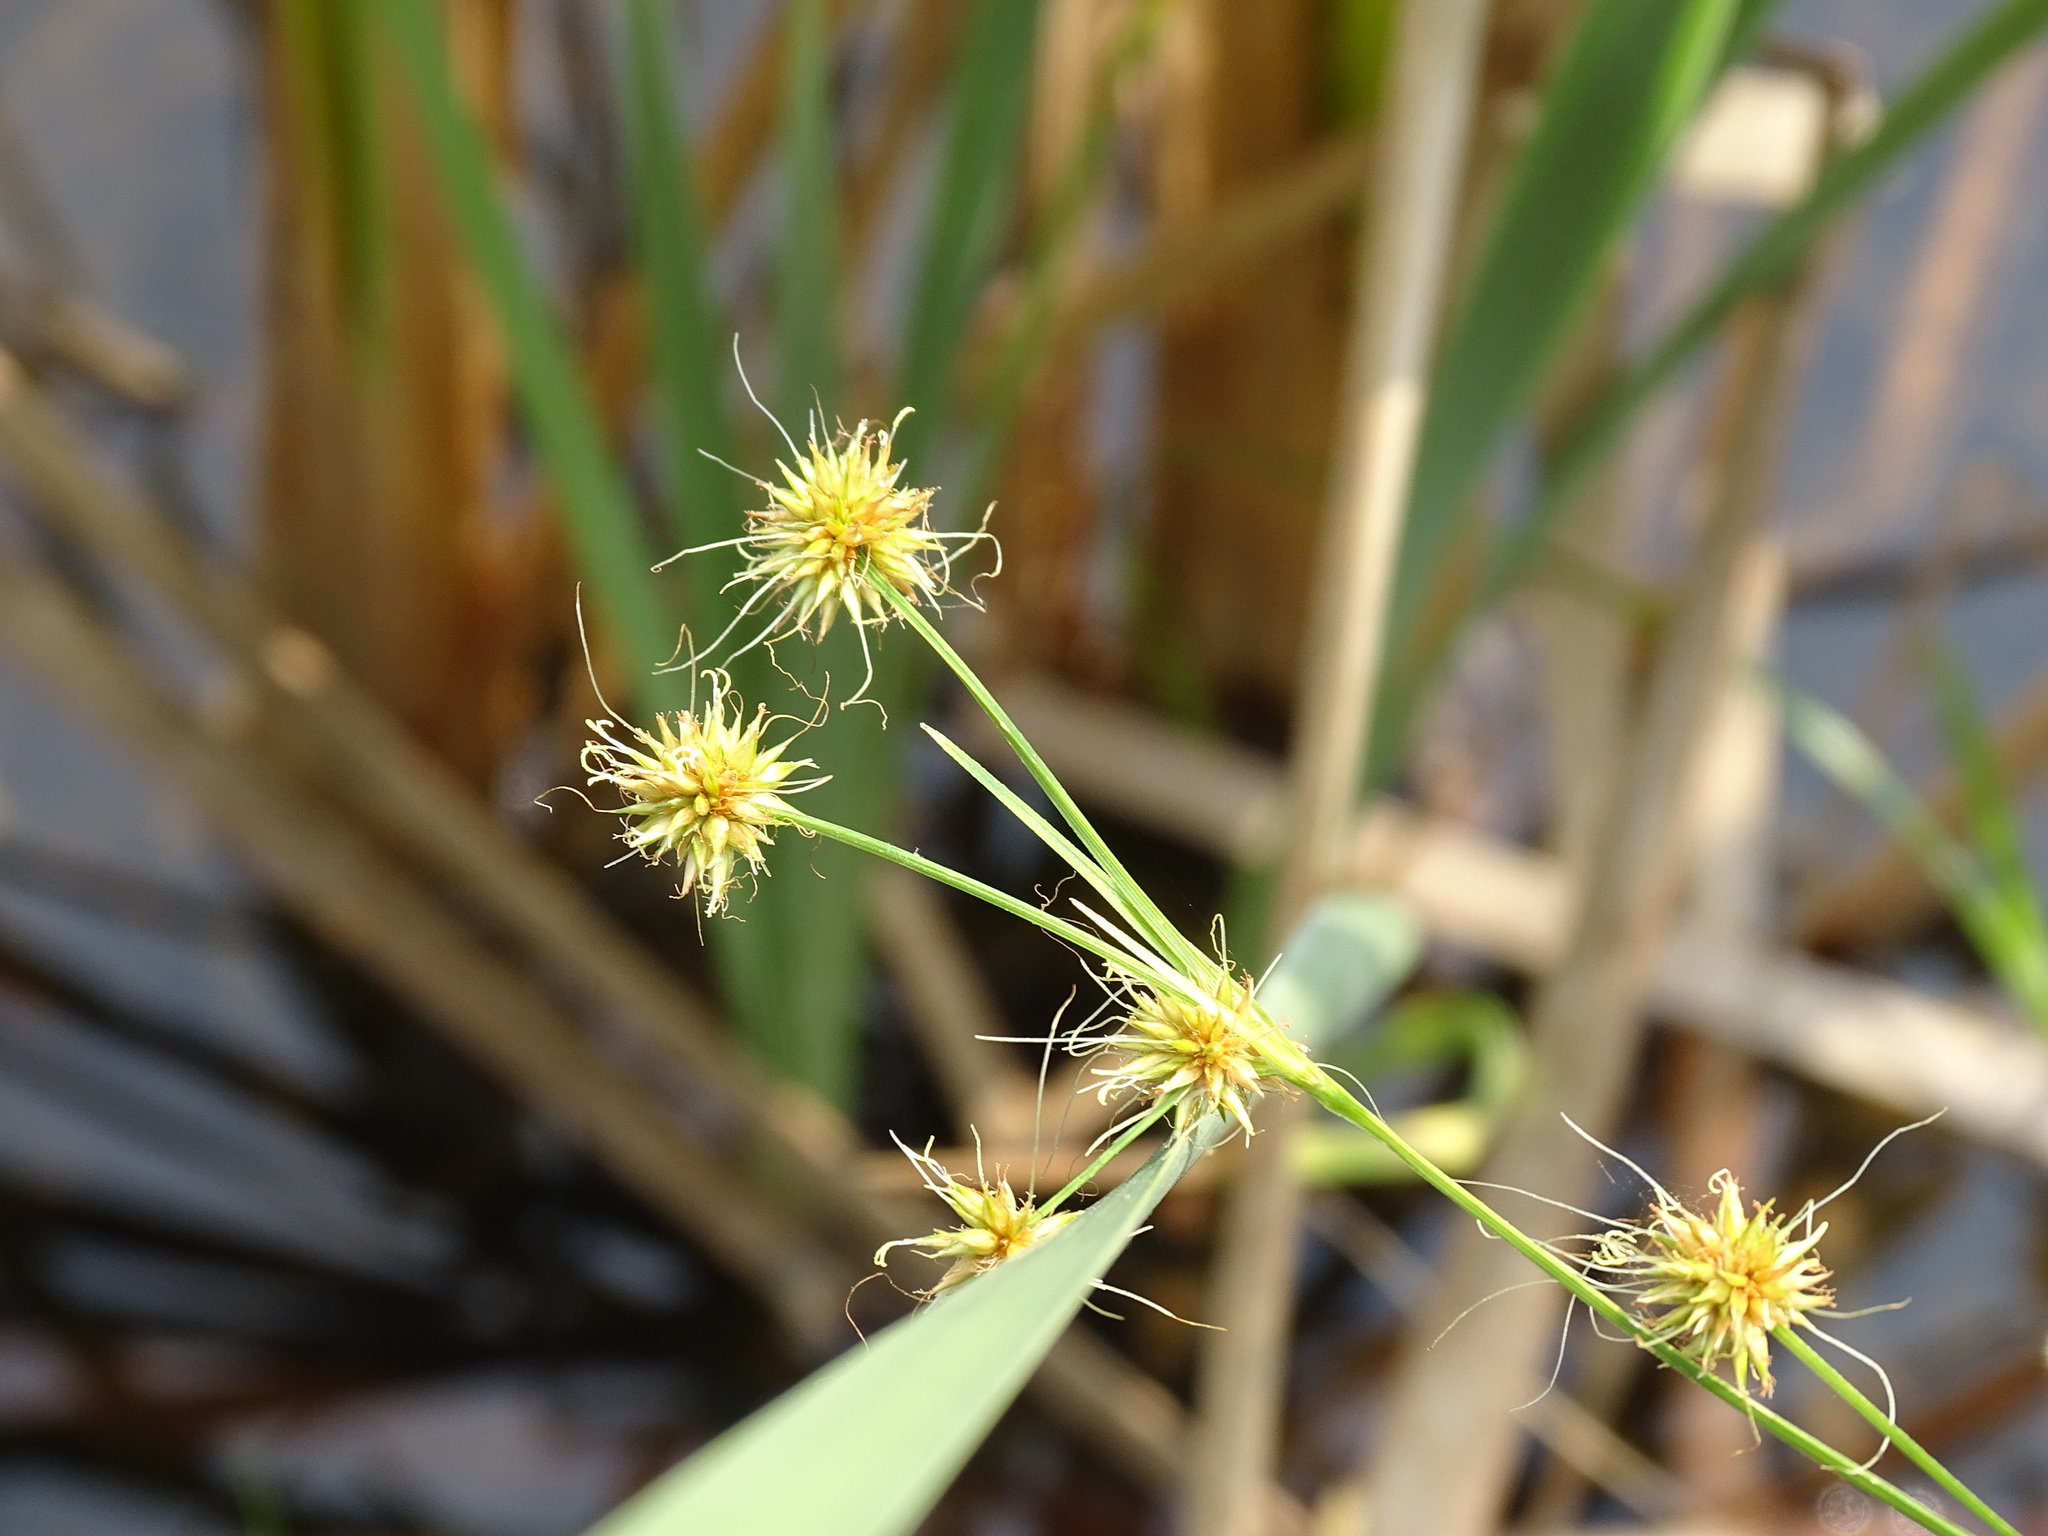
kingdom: Plantae
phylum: Tracheophyta
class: Liliopsida
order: Poales
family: Cyperaceae
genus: Rhynchospora
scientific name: Rhynchospora holoschoenoides
